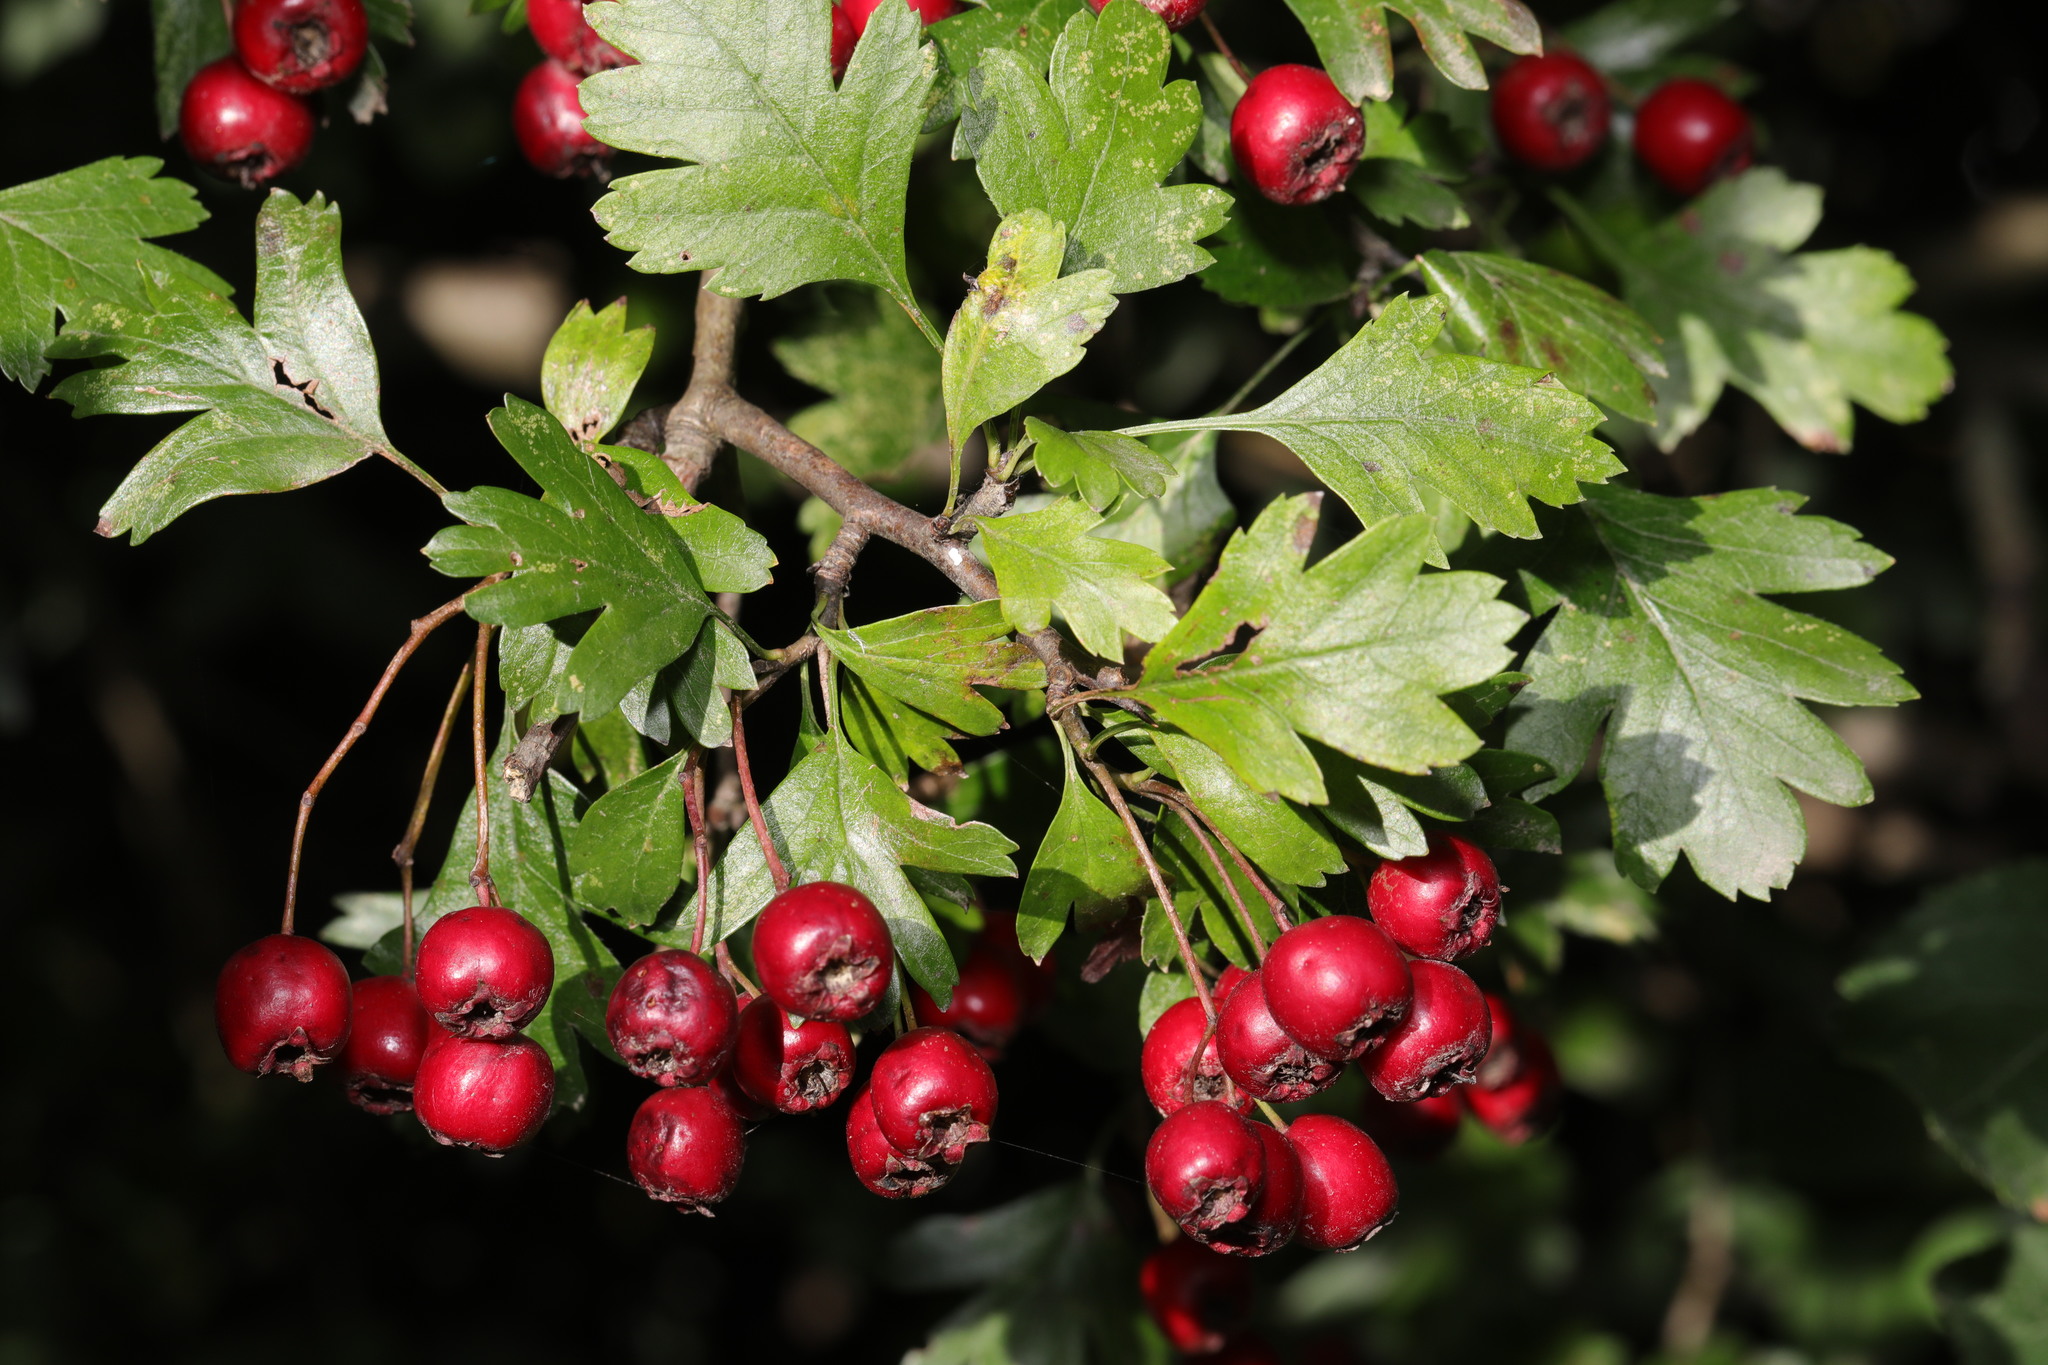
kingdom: Plantae
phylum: Tracheophyta
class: Magnoliopsida
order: Rosales
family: Rosaceae
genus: Crataegus
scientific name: Crataegus monogyna
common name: Hawthorn
